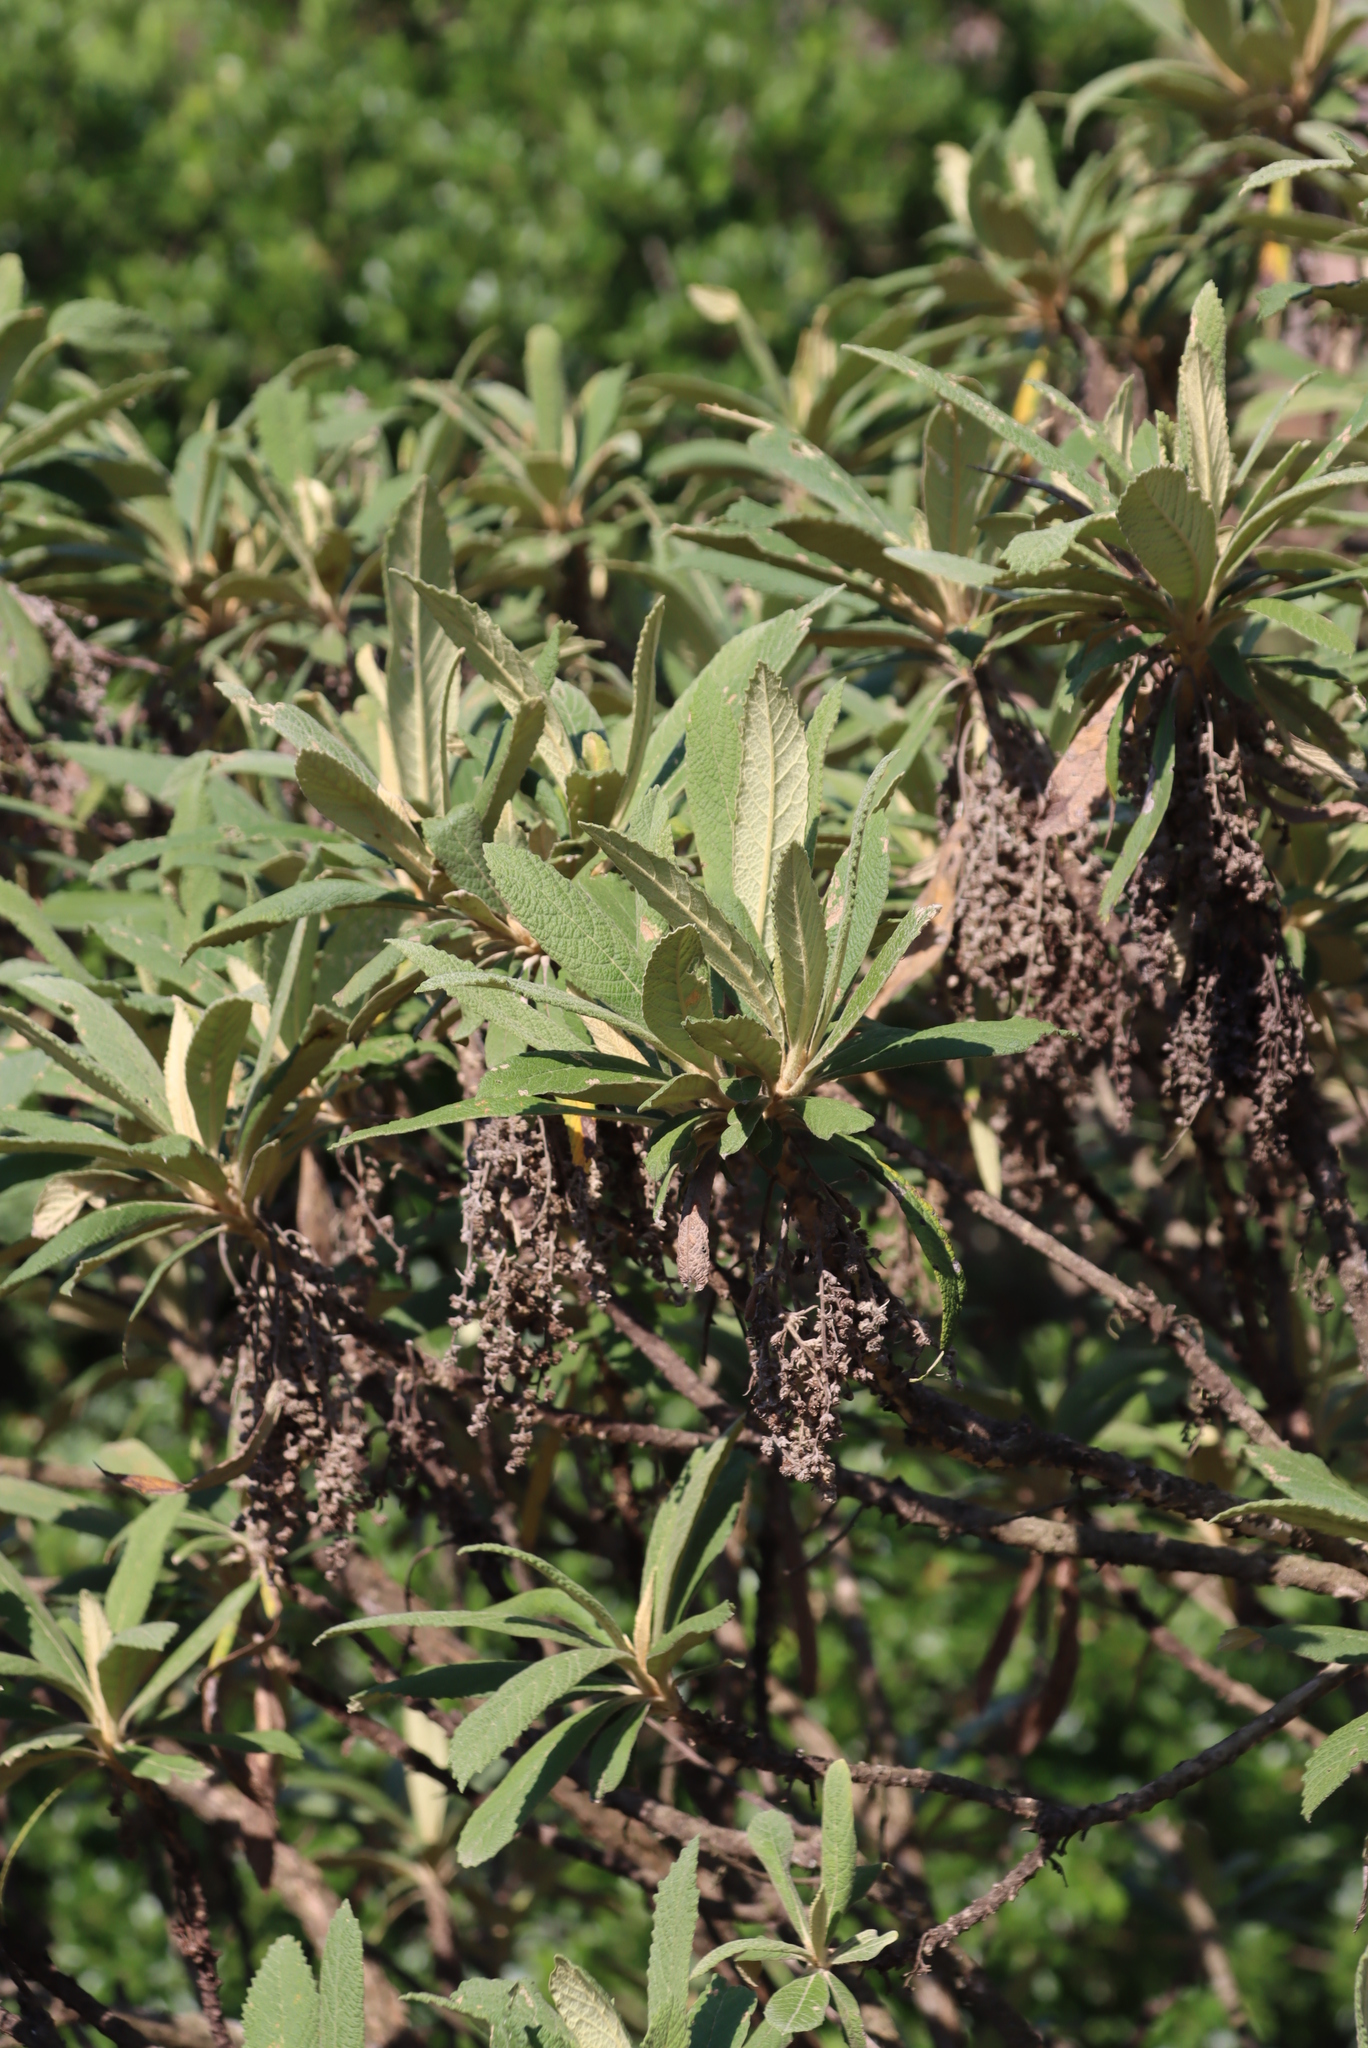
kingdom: Plantae
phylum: Tracheophyta
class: Magnoliopsida
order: Asterales
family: Asteraceae
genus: Tarchonanthus
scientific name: Tarchonanthus trilobus
